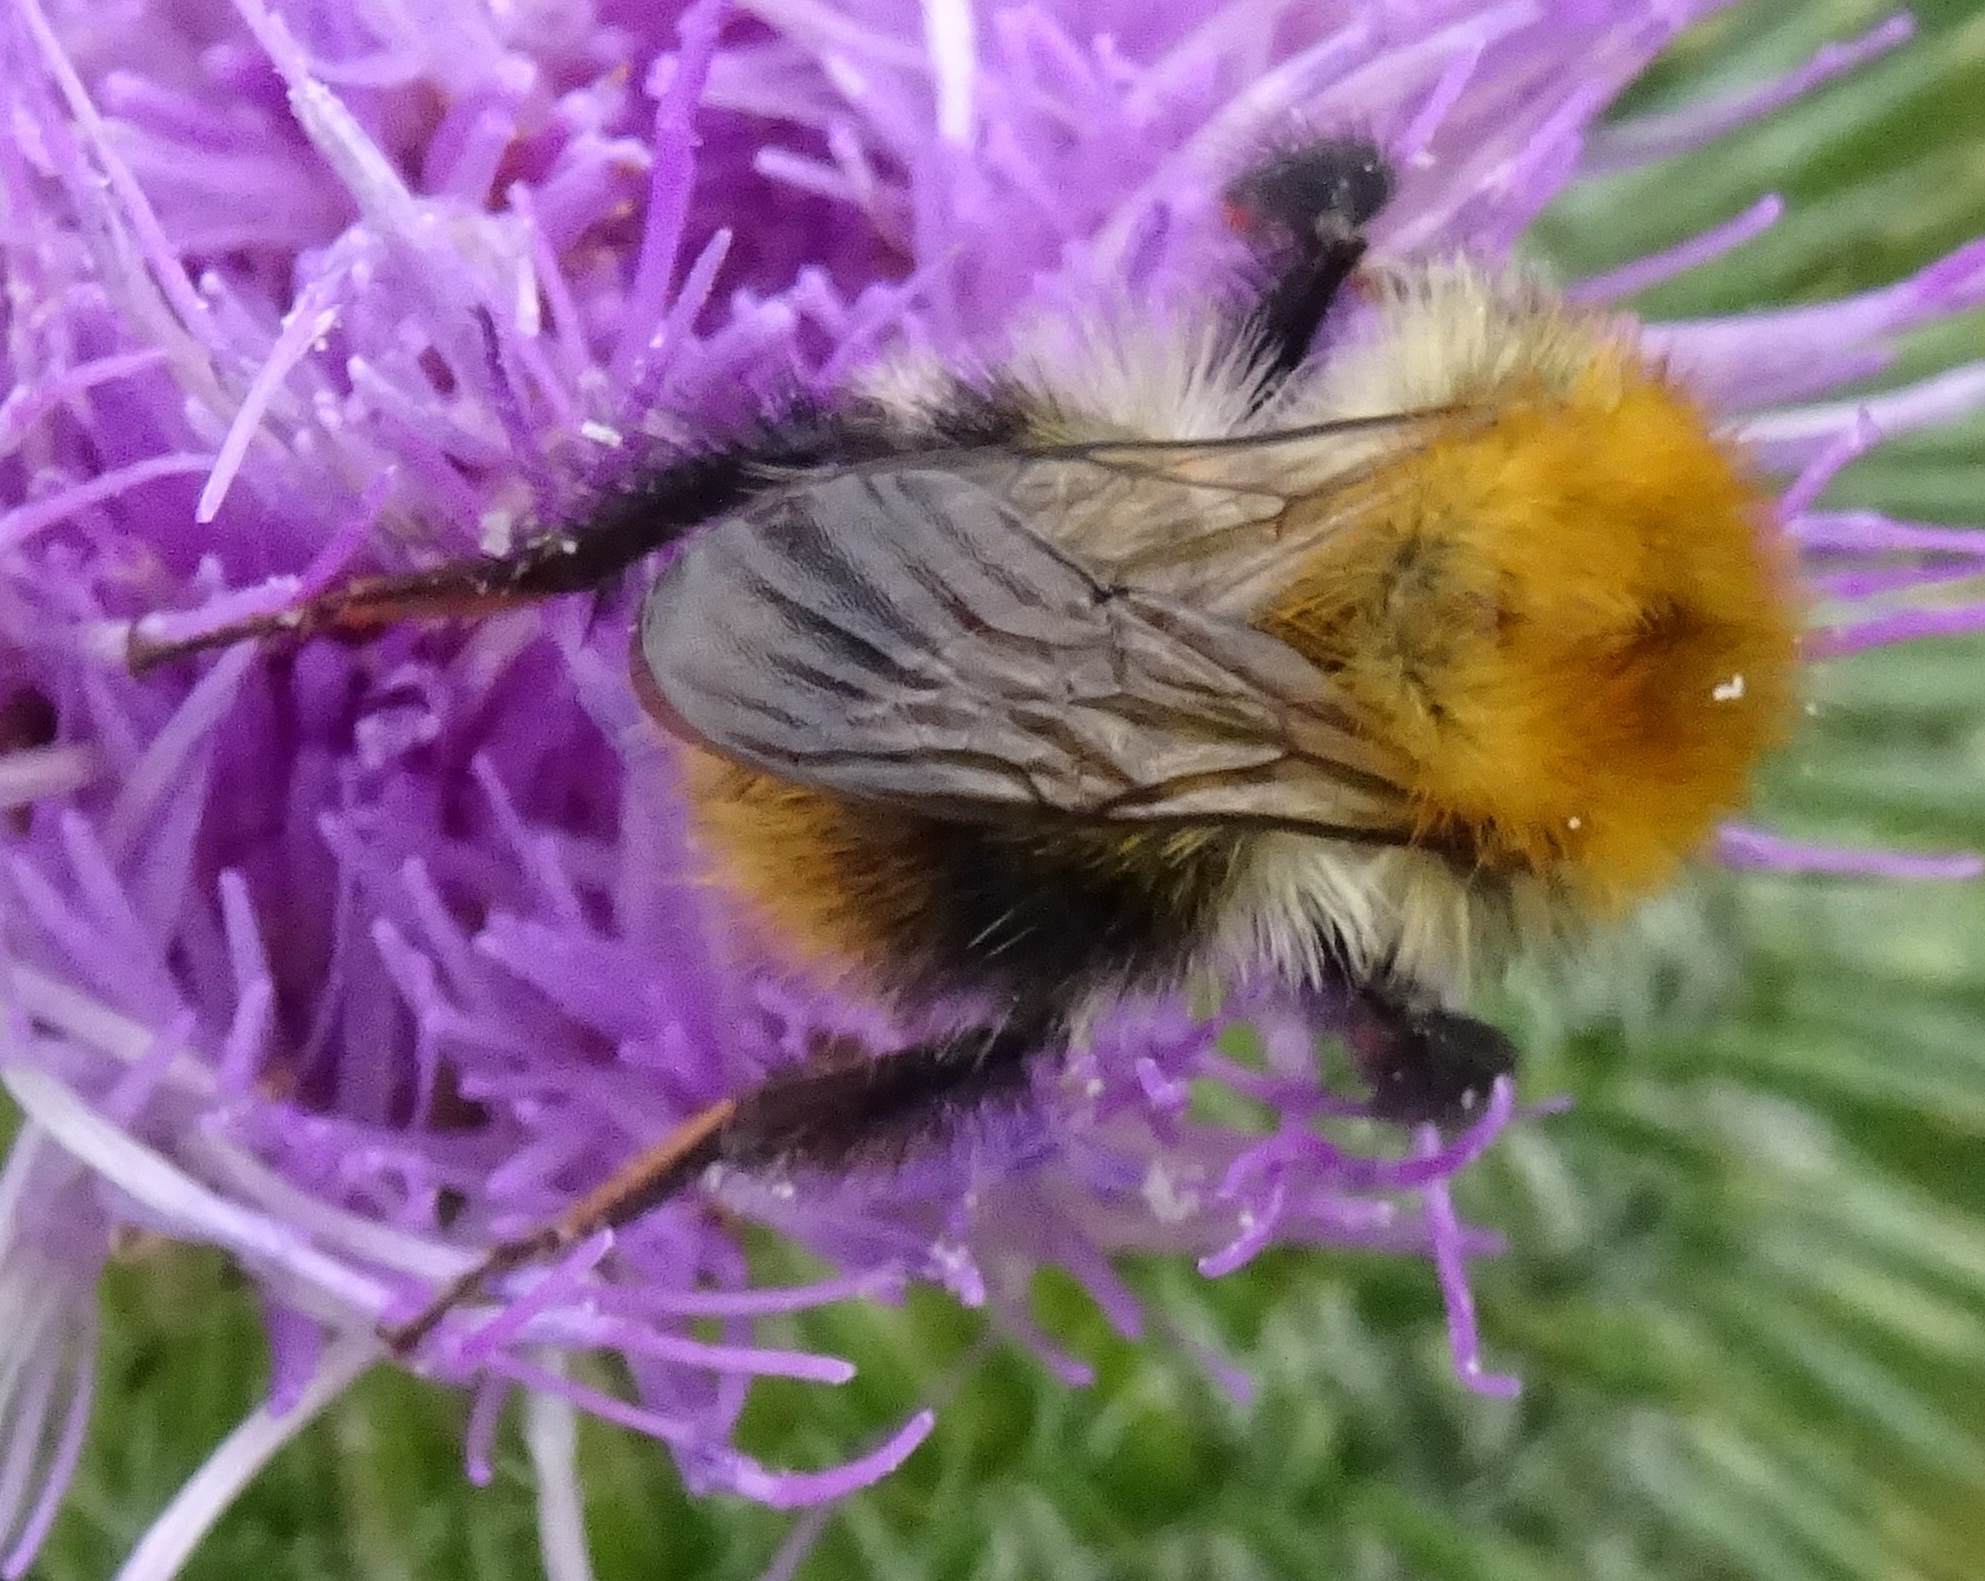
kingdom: Animalia
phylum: Arthropoda
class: Insecta
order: Hymenoptera
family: Apidae
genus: Bombus
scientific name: Bombus pascuorum
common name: Common carder bee
